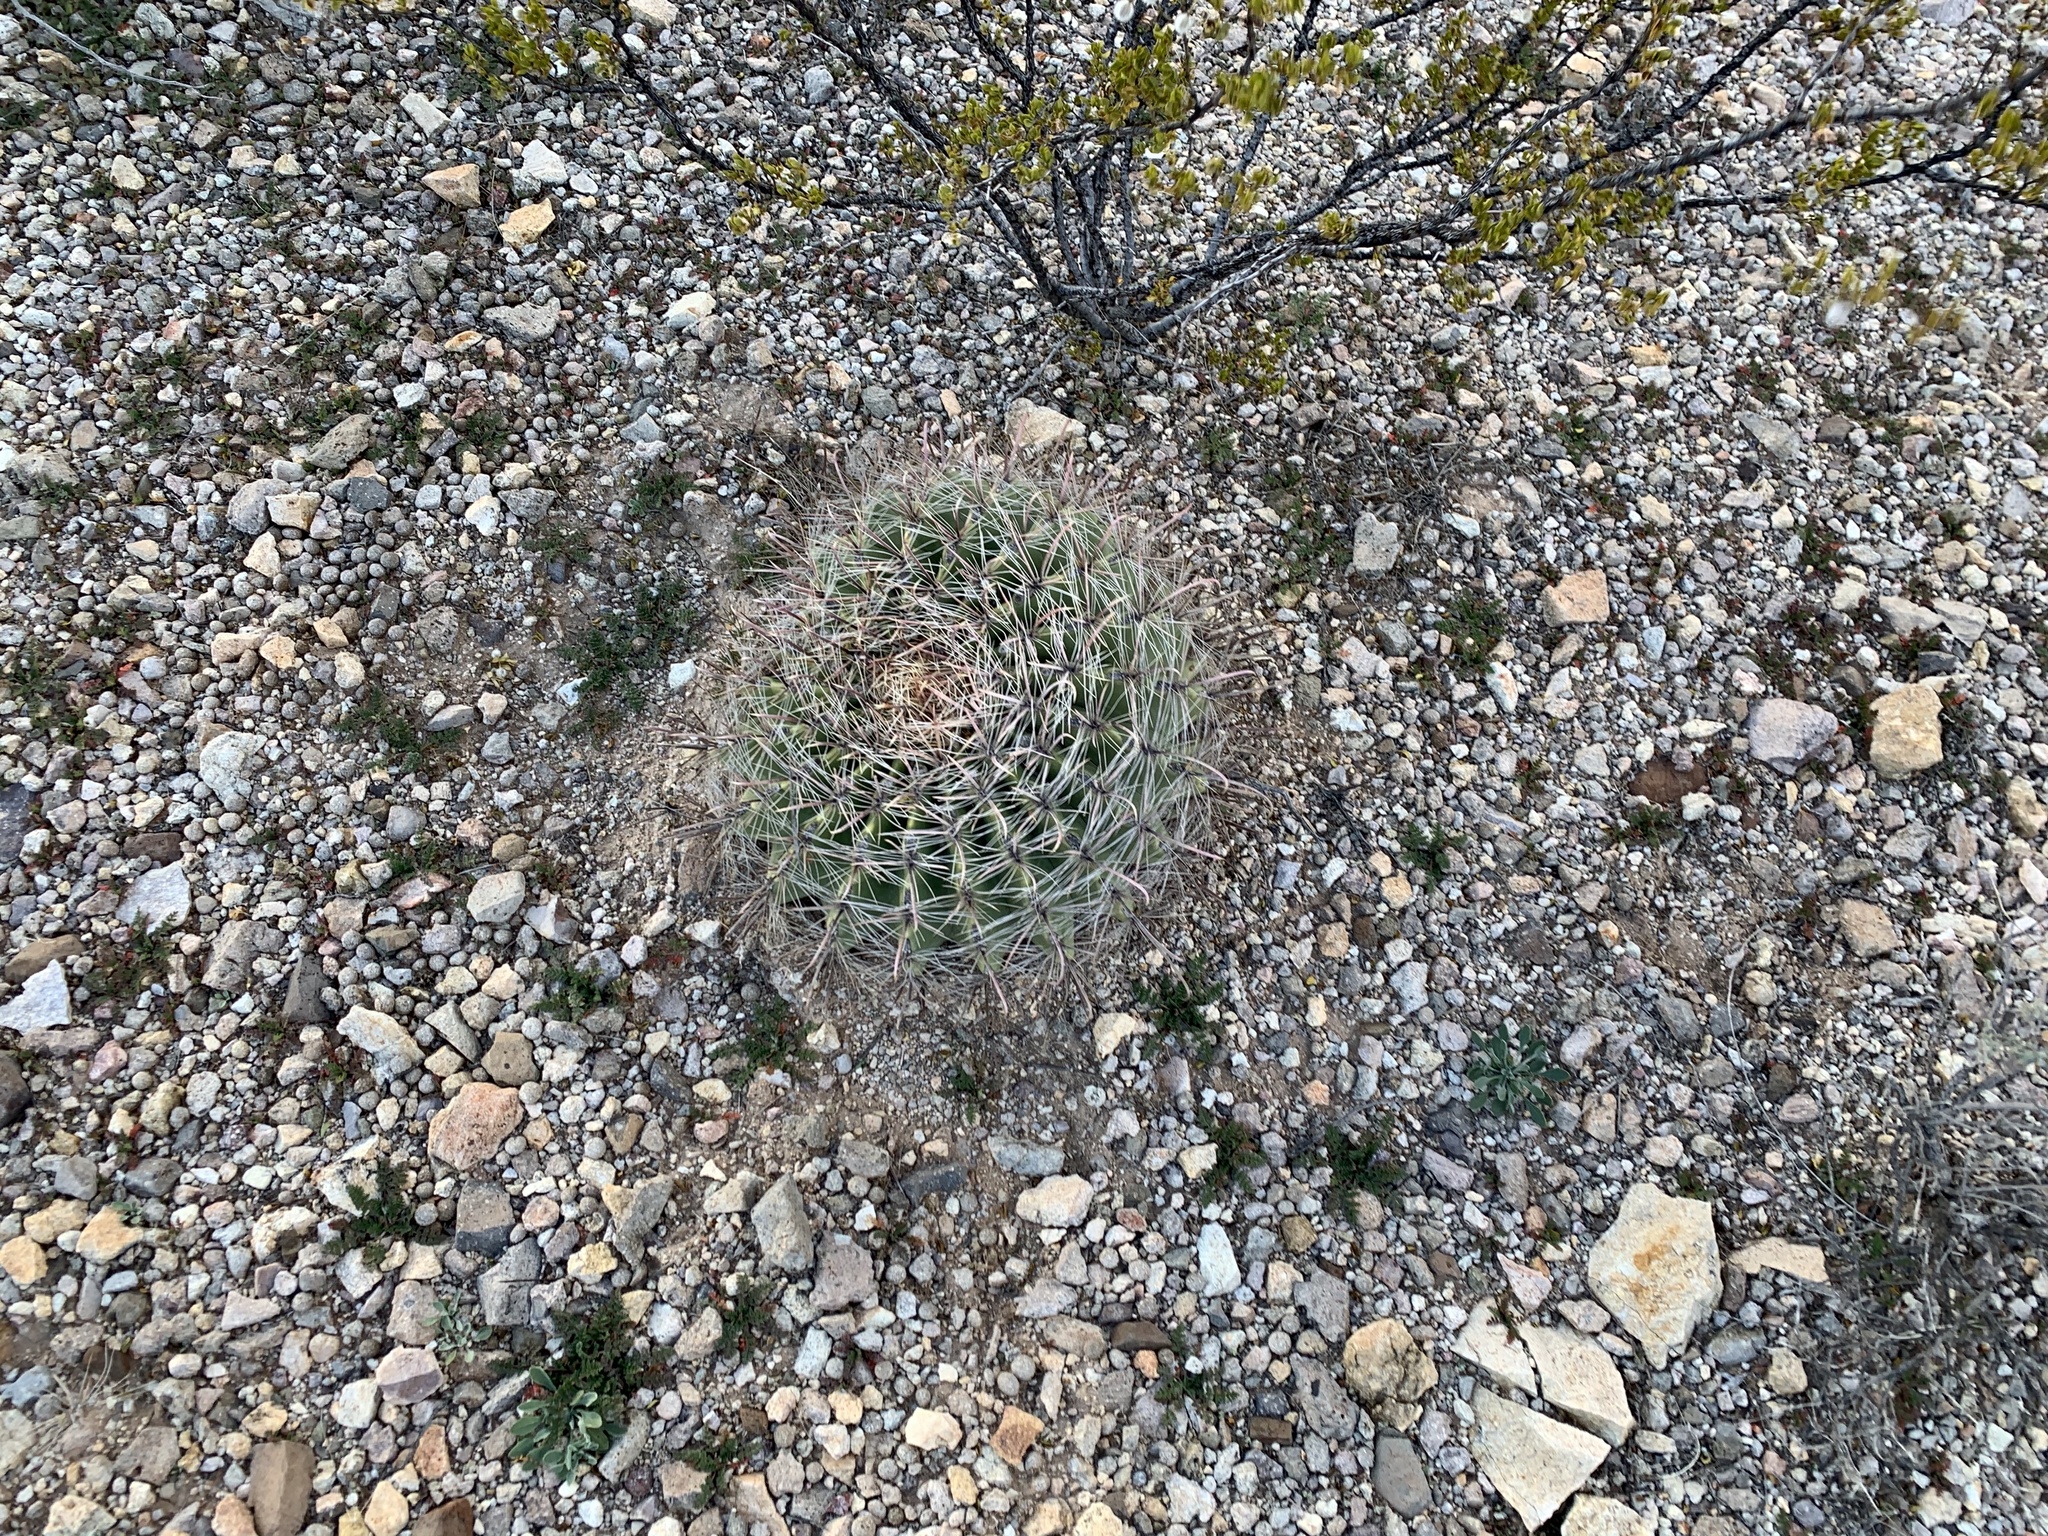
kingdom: Plantae
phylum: Tracheophyta
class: Magnoliopsida
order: Caryophyllales
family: Cactaceae
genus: Ferocactus
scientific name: Ferocactus wislizeni
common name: Candy barrel cactus
